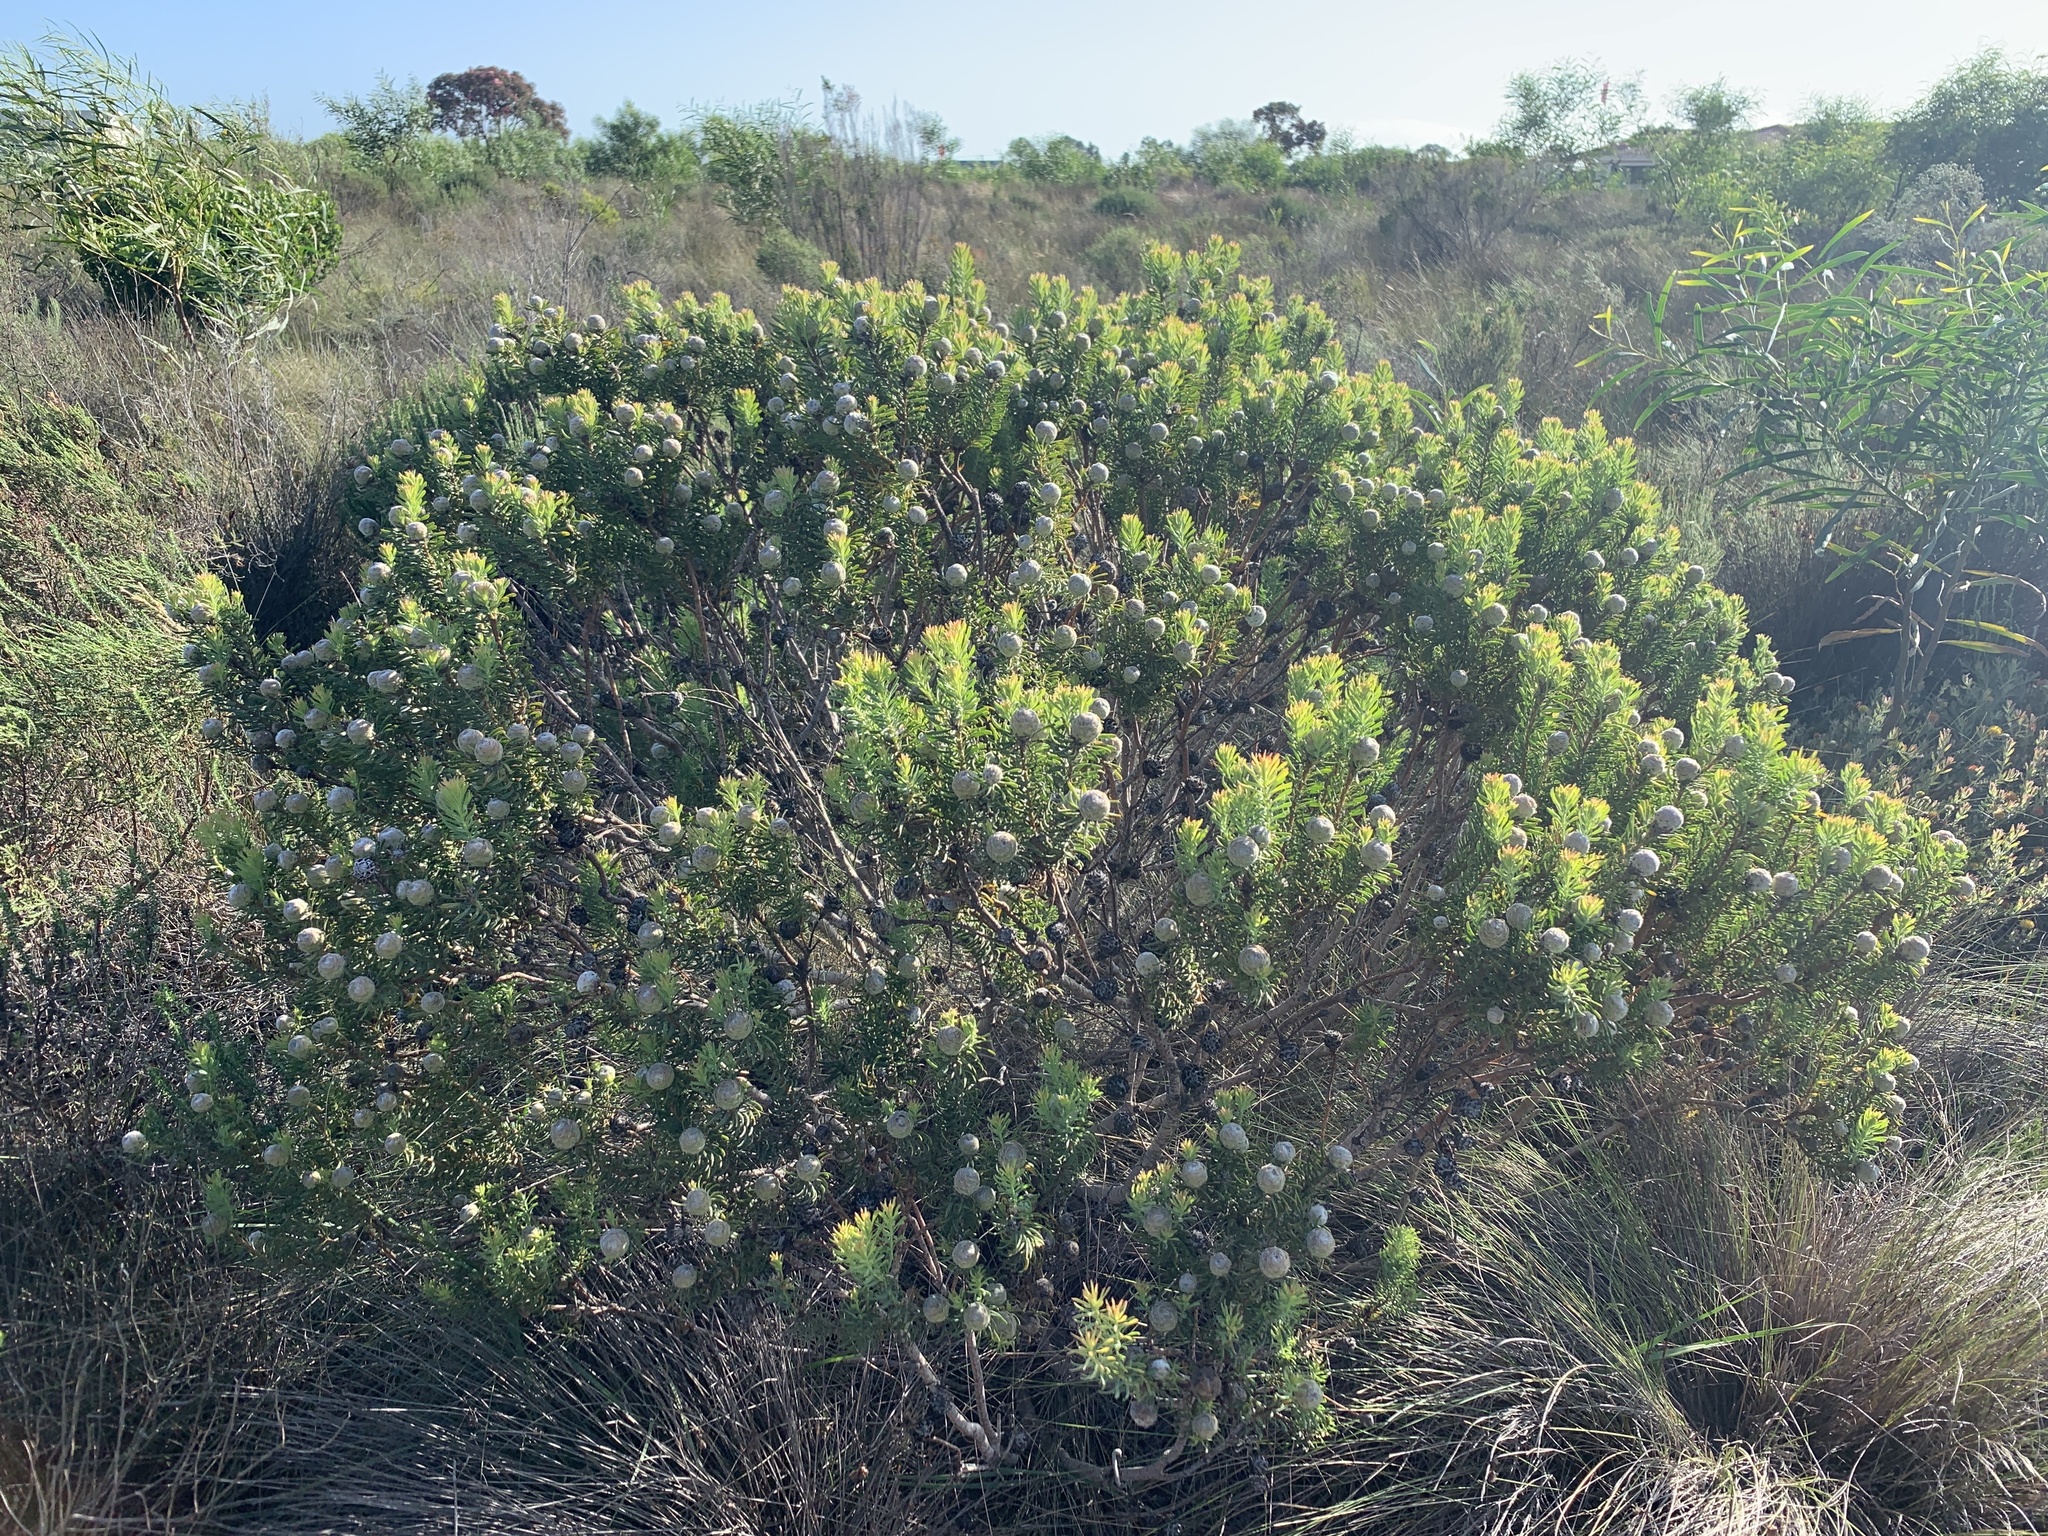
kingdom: Plantae
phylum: Tracheophyta
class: Magnoliopsida
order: Proteales
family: Proteaceae
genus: Leucadendron
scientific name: Leucadendron linifolium
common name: Line-leaf conebush
